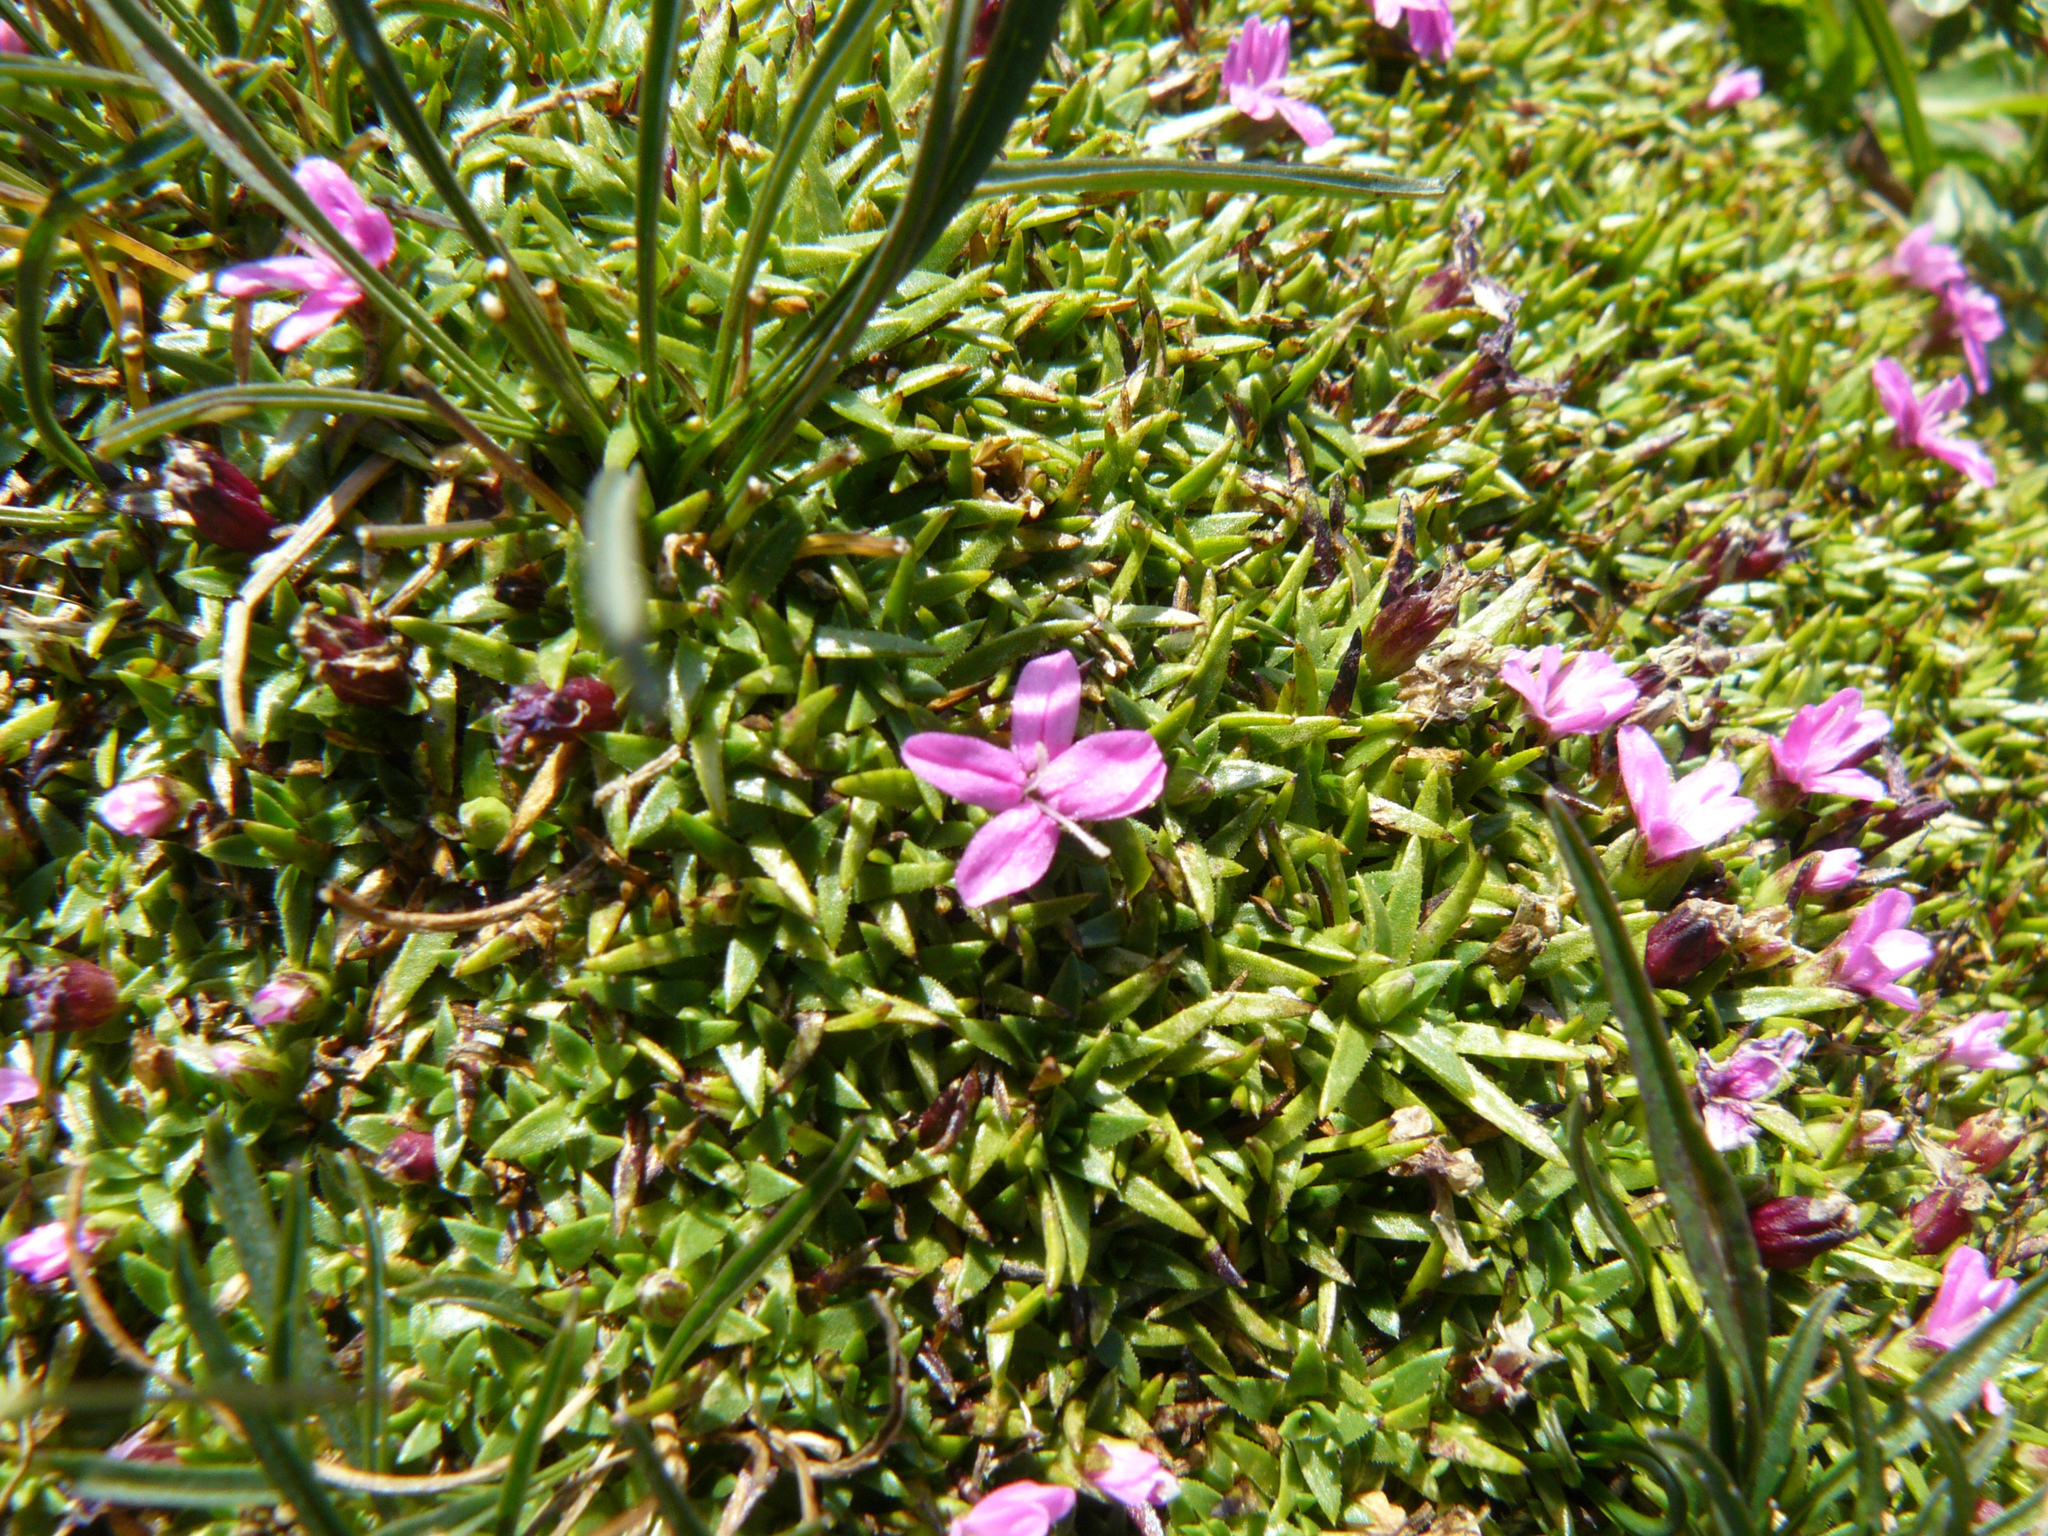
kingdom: Plantae
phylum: Tracheophyta
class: Magnoliopsida
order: Caryophyllales
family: Caryophyllaceae
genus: Silene
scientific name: Silene acaulis
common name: Moss campion
